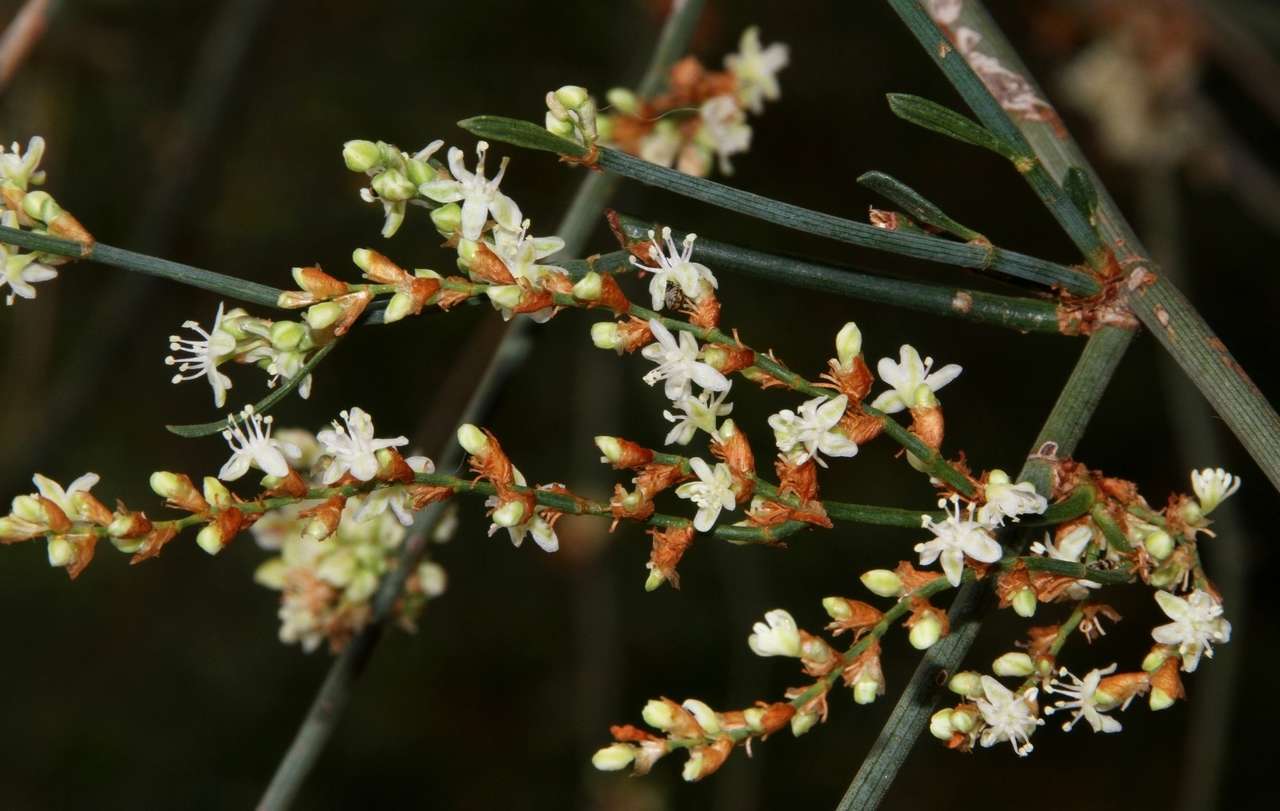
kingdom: Plantae
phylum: Tracheophyta
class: Magnoliopsida
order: Caryophyllales
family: Polygonaceae
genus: Duma
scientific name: Duma florulenta
